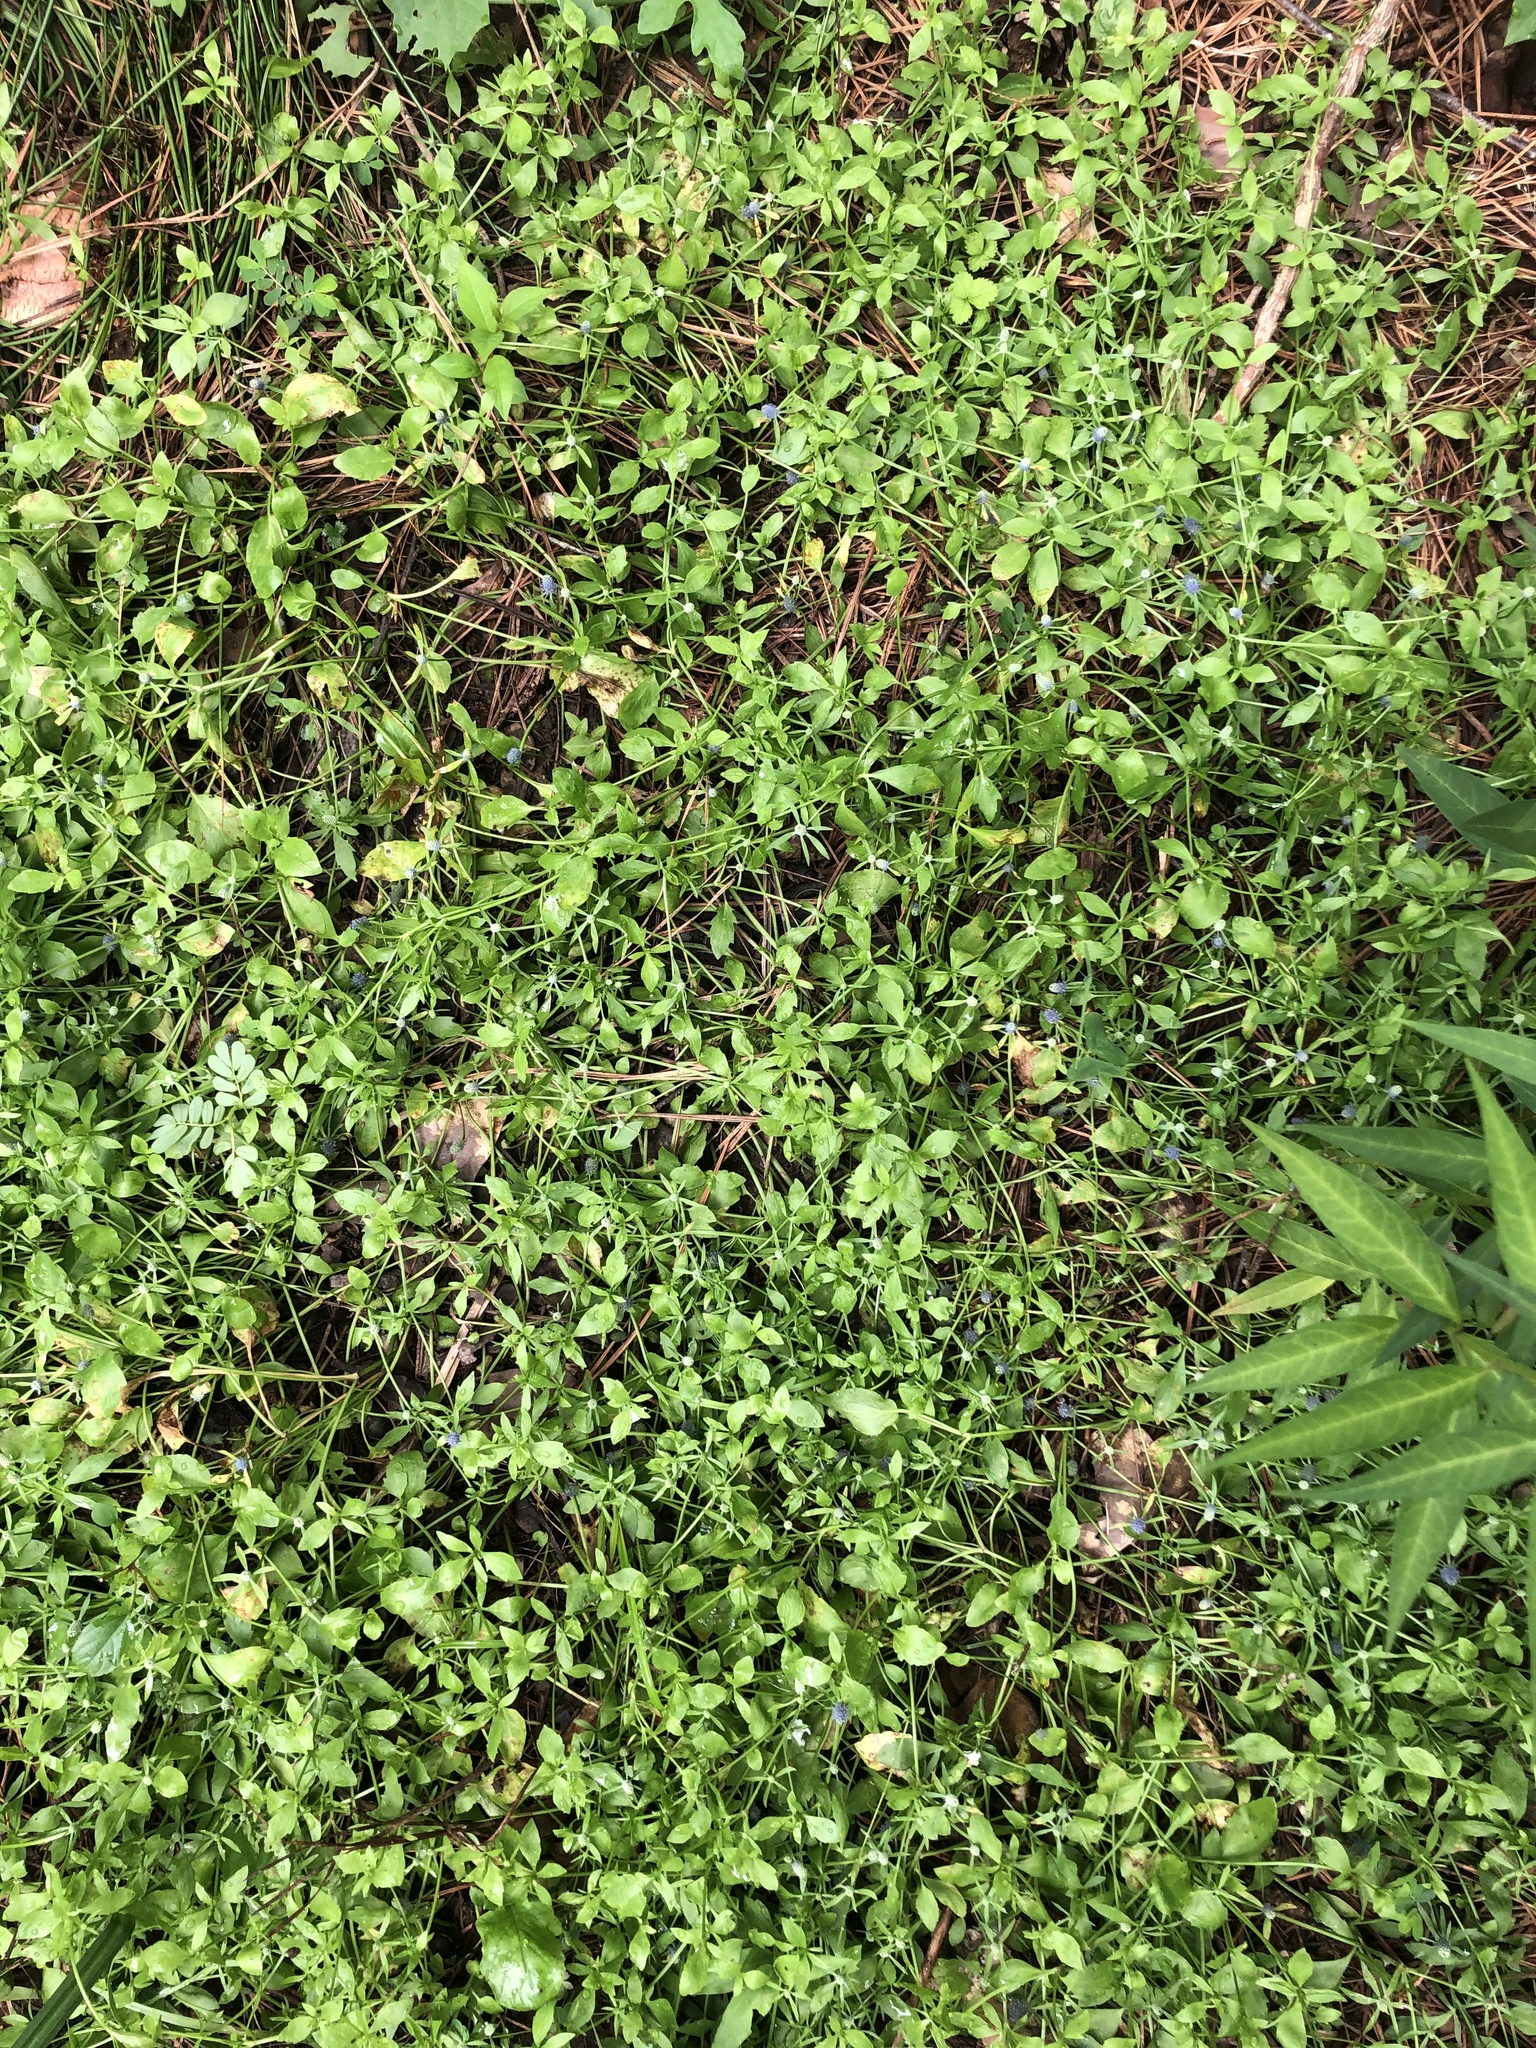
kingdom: Plantae
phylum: Tracheophyta
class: Magnoliopsida
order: Apiales
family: Apiaceae
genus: Eryngium
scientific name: Eryngium prostratum
